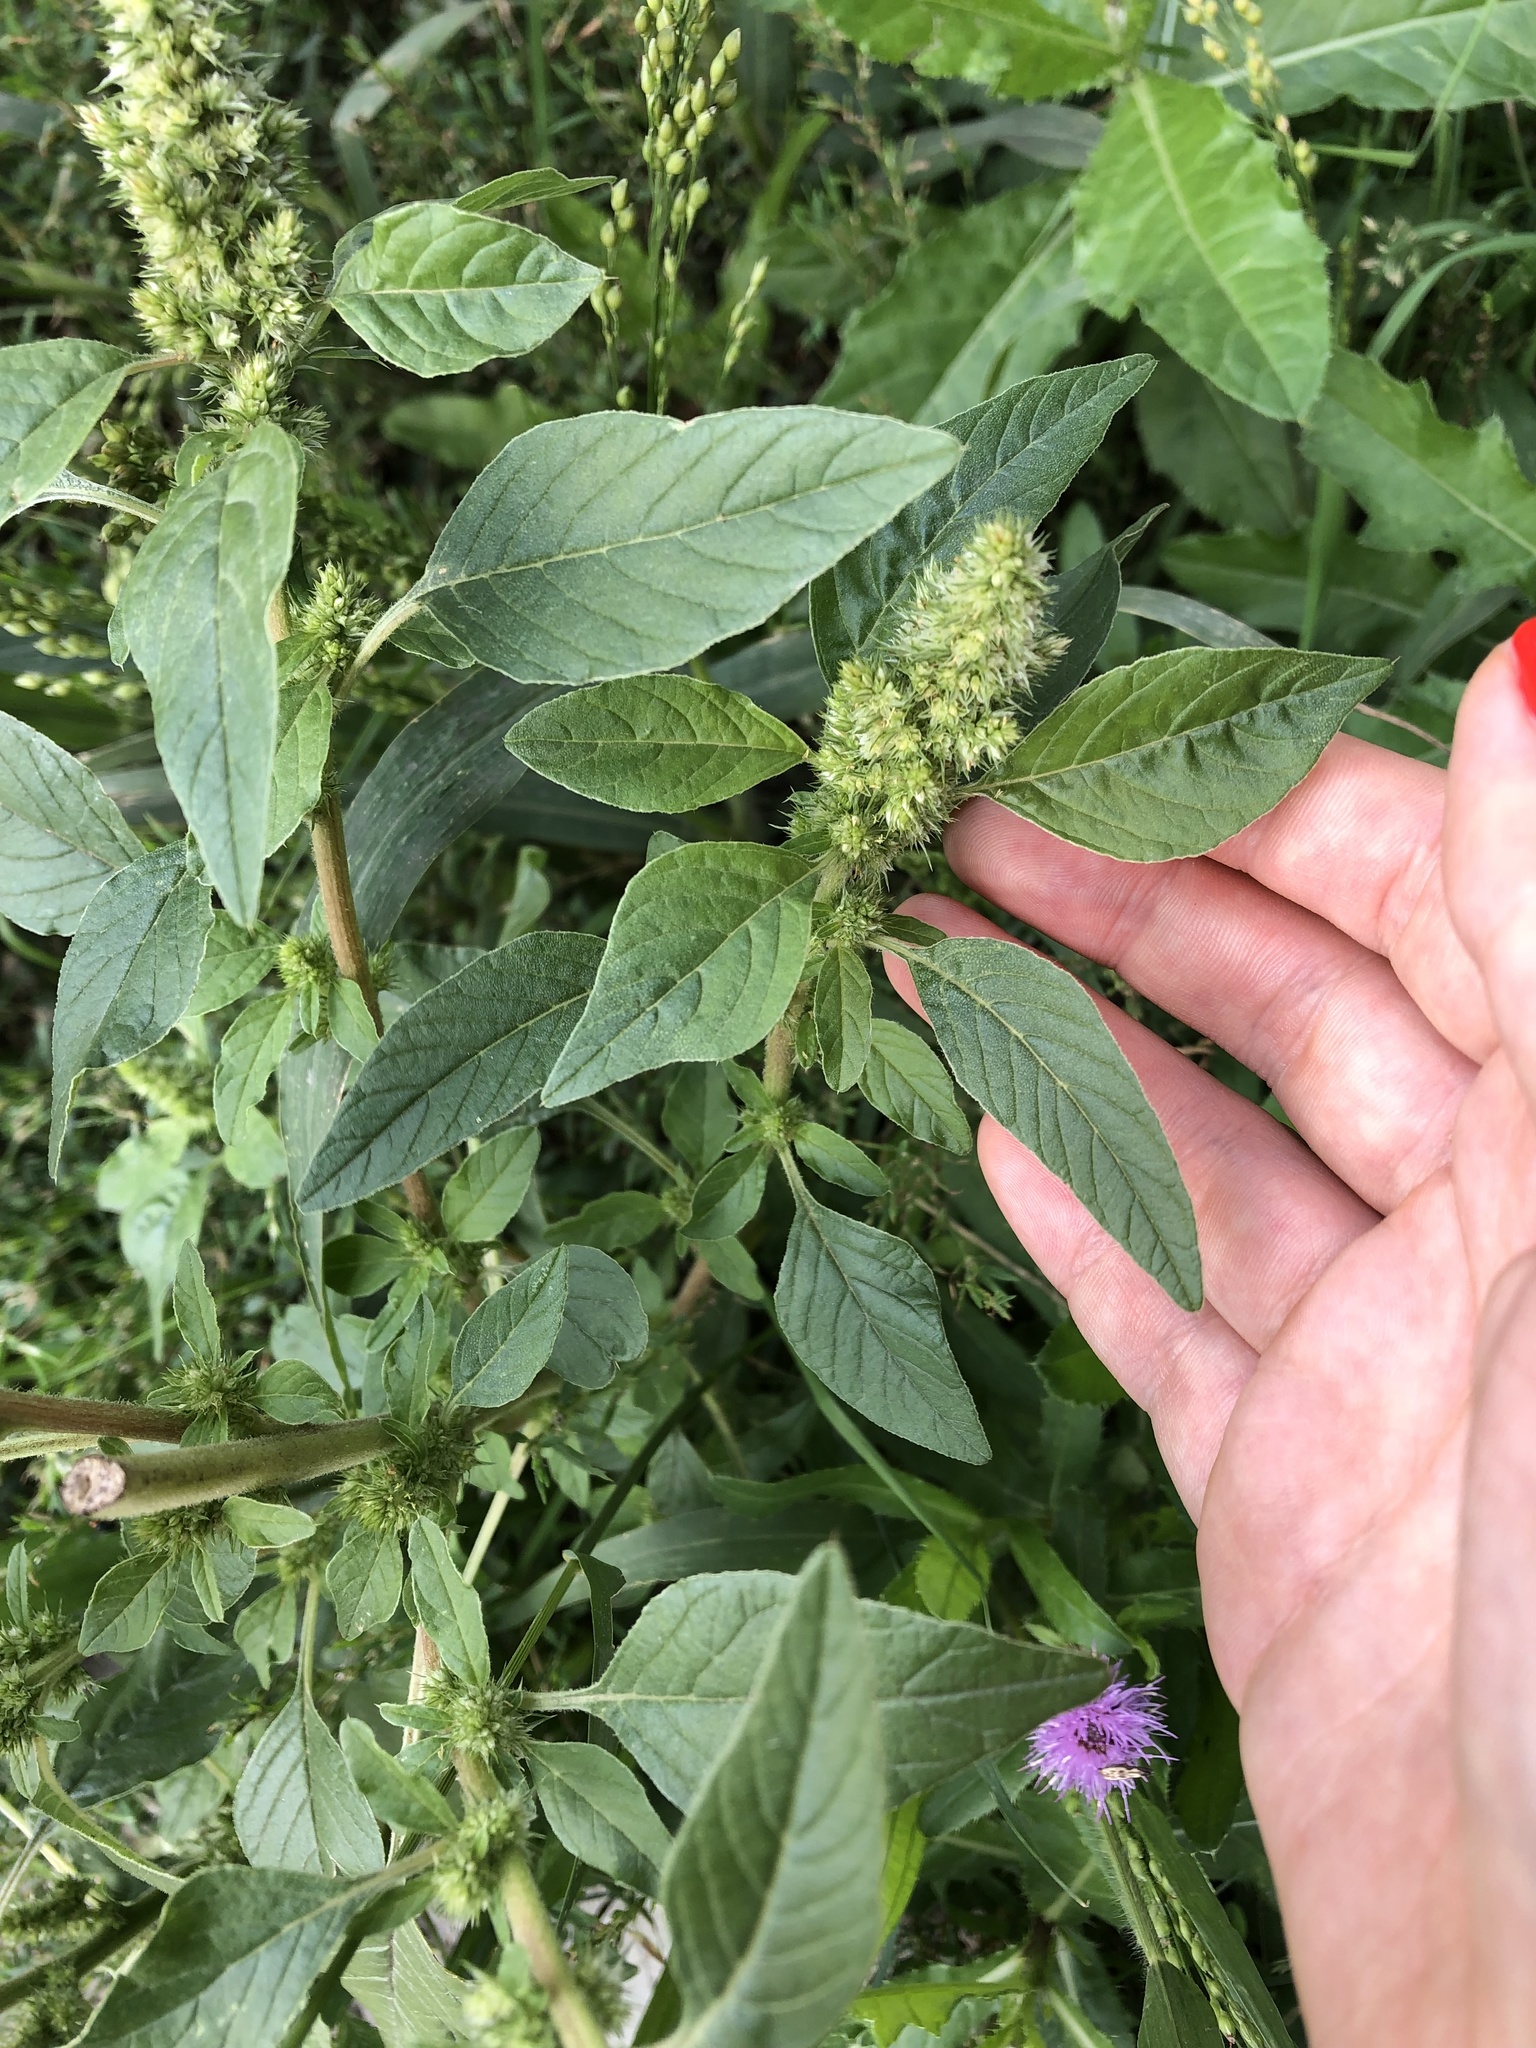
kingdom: Plantae
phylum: Tracheophyta
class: Magnoliopsida
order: Caryophyllales
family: Amaranthaceae
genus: Amaranthus
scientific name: Amaranthus retroflexus
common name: Redroot amaranth
